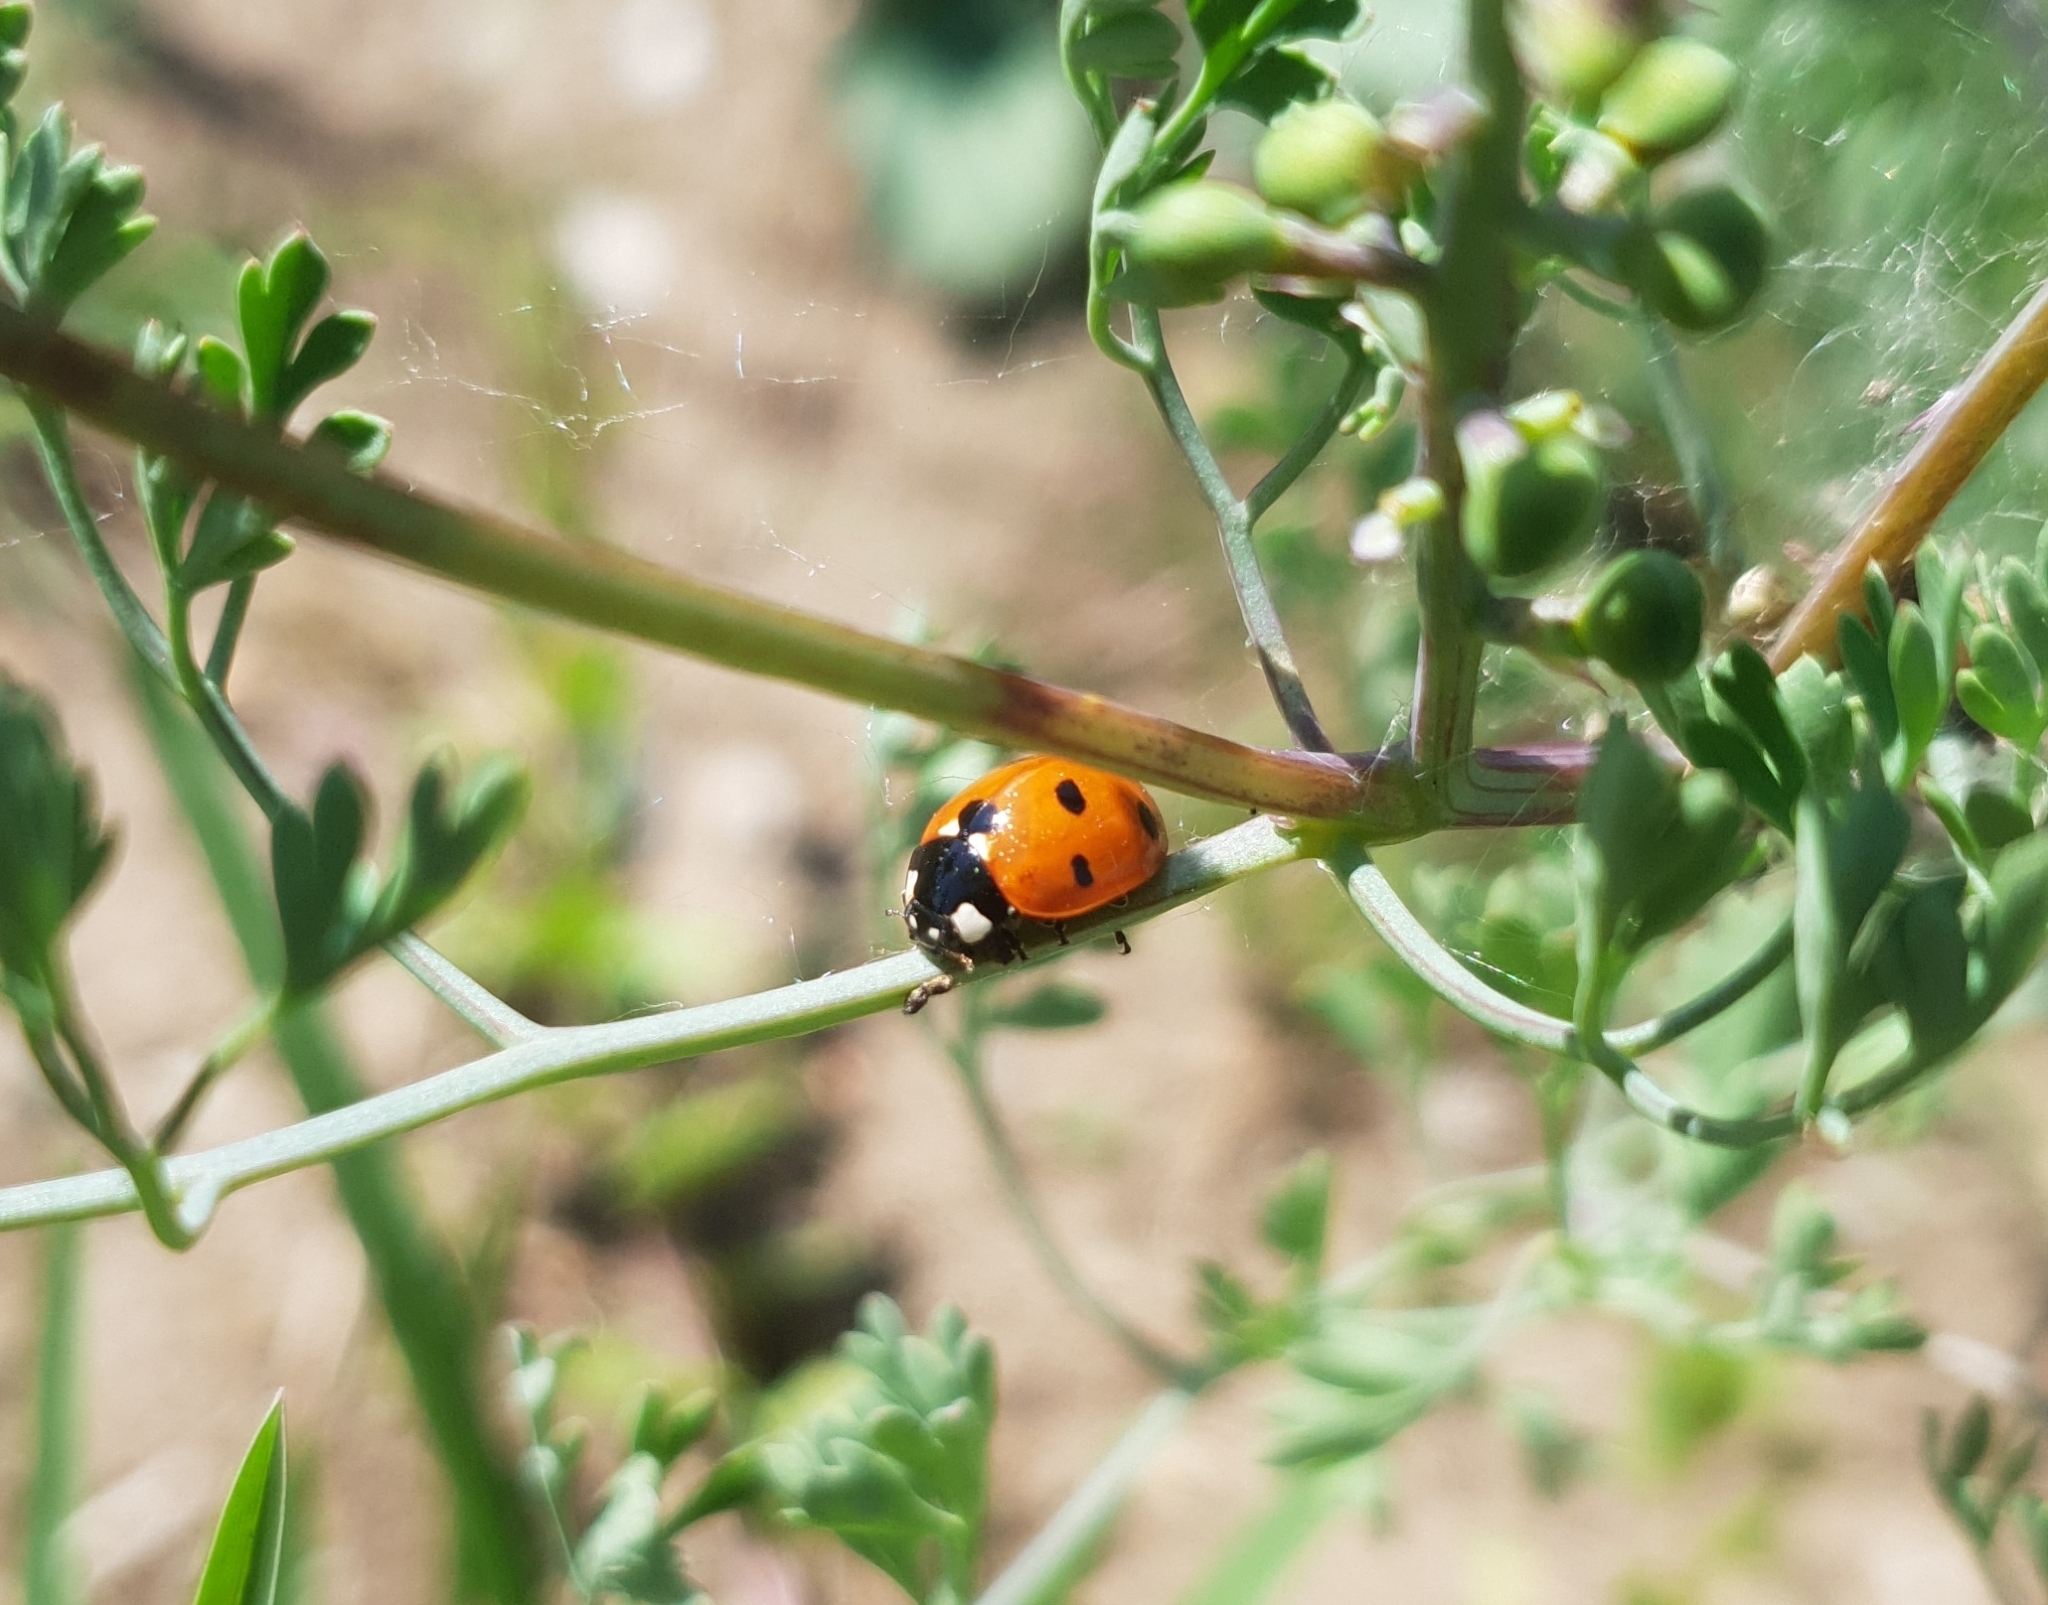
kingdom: Animalia
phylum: Arthropoda
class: Insecta
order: Coleoptera
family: Coccinellidae
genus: Coccinella
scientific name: Coccinella septempunctata
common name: Sevenspotted lady beetle
